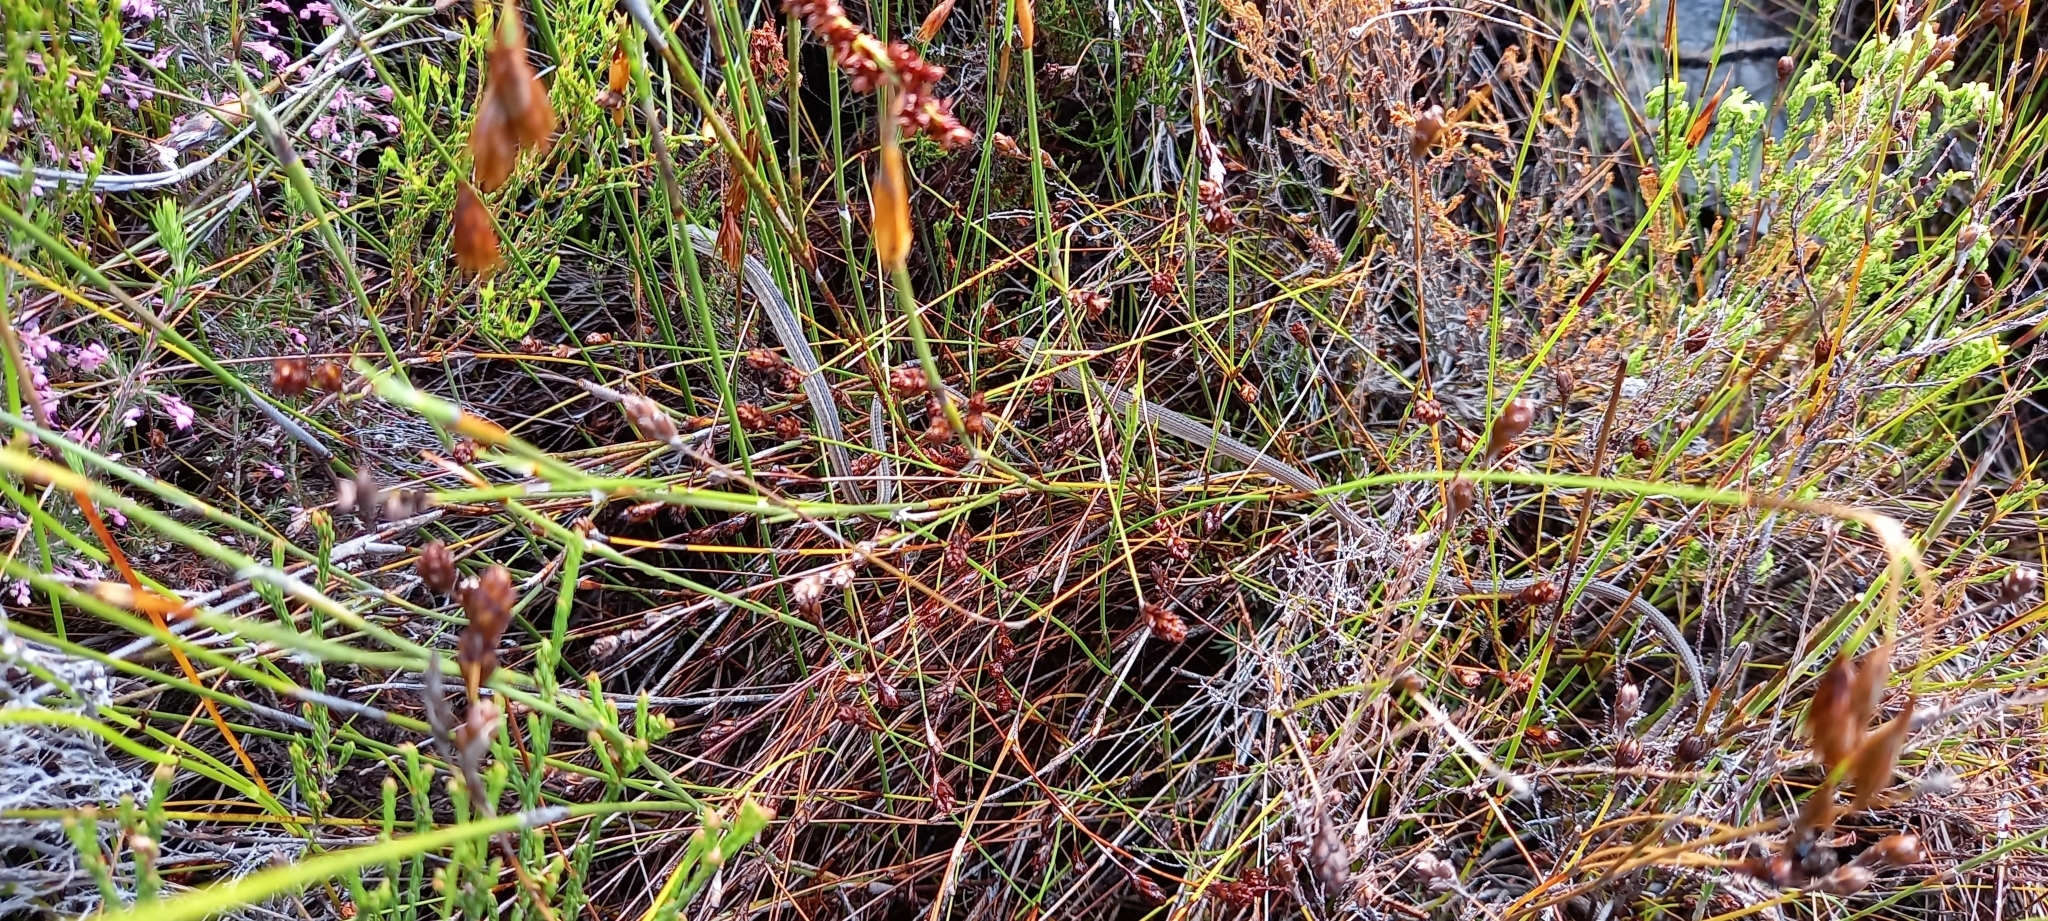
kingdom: Animalia
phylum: Chordata
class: Squamata
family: Cordylidae
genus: Chamaesaura
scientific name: Chamaesaura anguina
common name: Cape snake lizard
